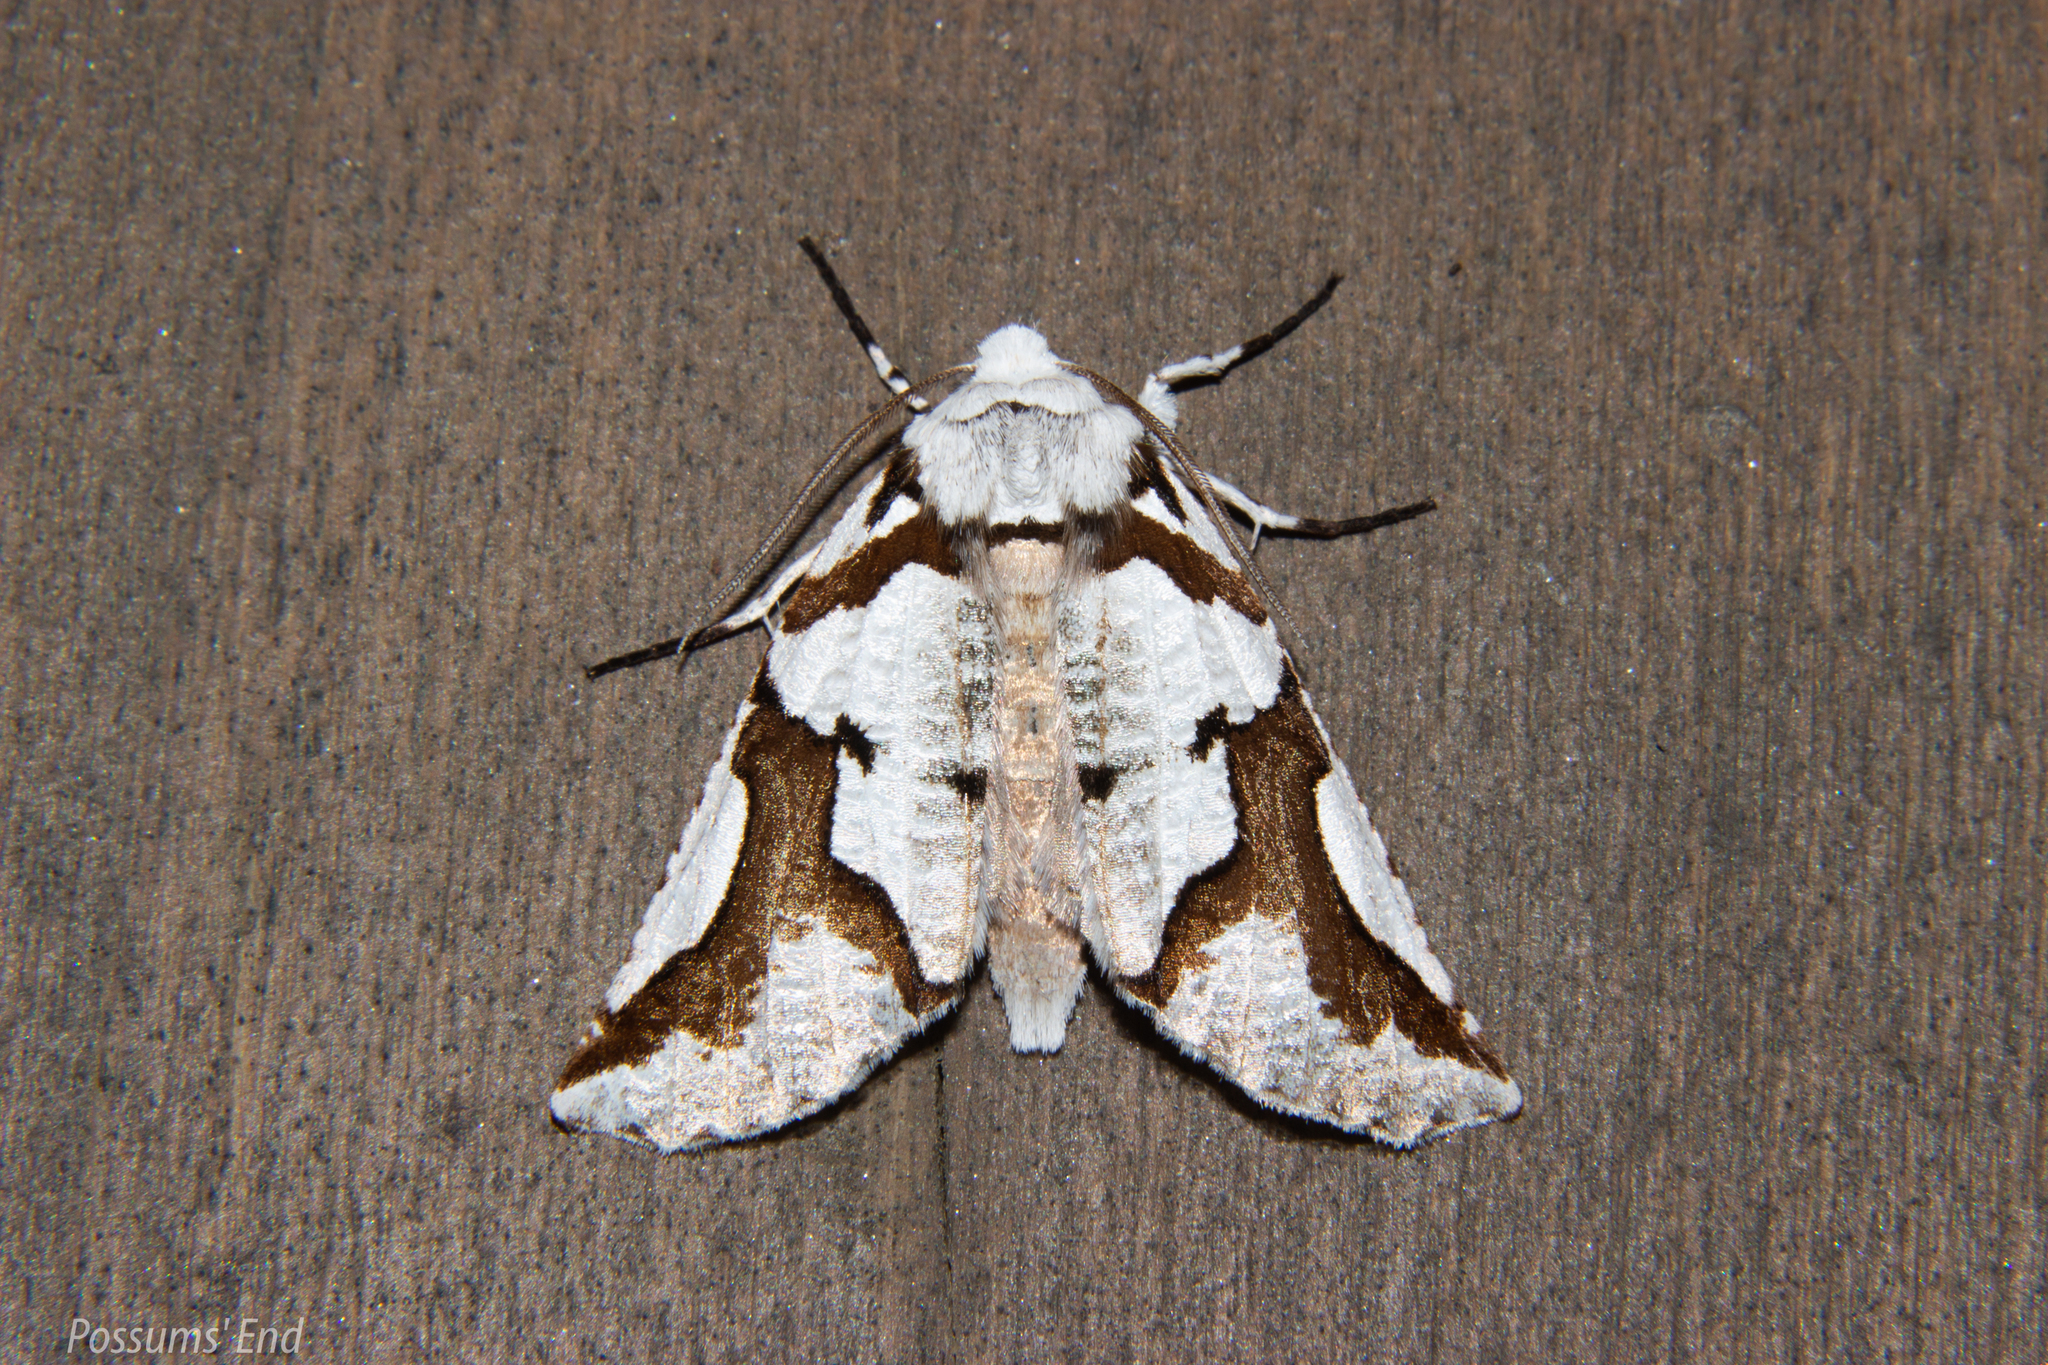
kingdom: Animalia
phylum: Arthropoda
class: Insecta
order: Lepidoptera
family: Geometridae
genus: Declana
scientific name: Declana
